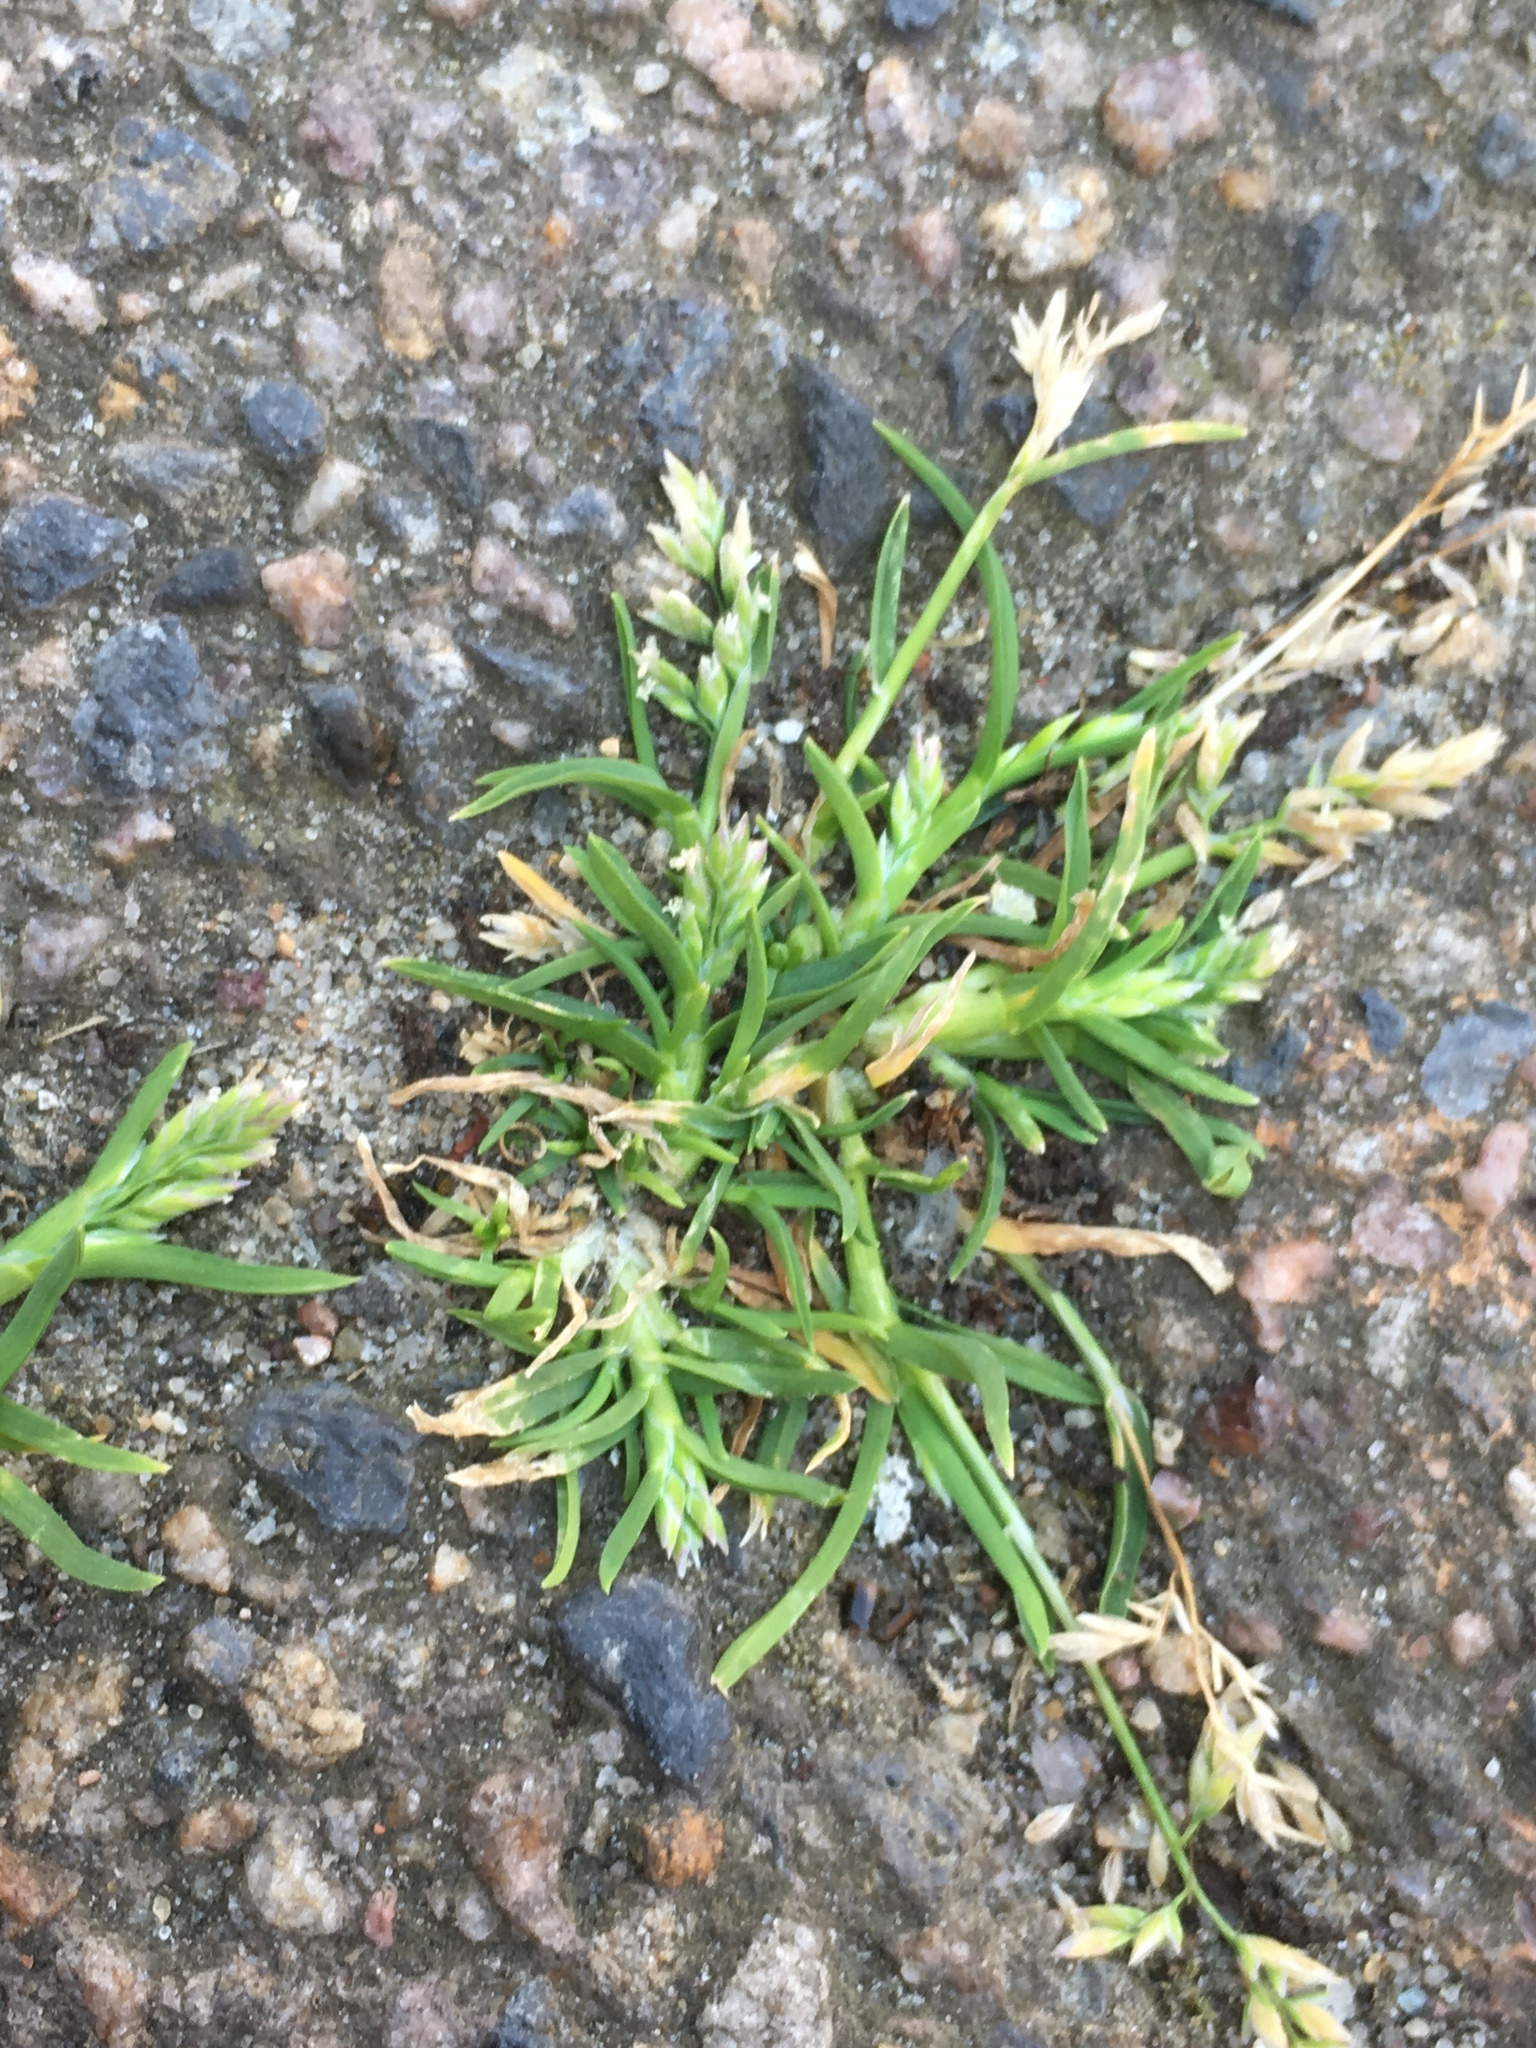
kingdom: Plantae
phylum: Tracheophyta
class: Liliopsida
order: Poales
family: Poaceae
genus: Poa
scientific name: Poa annua
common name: Annual bluegrass
